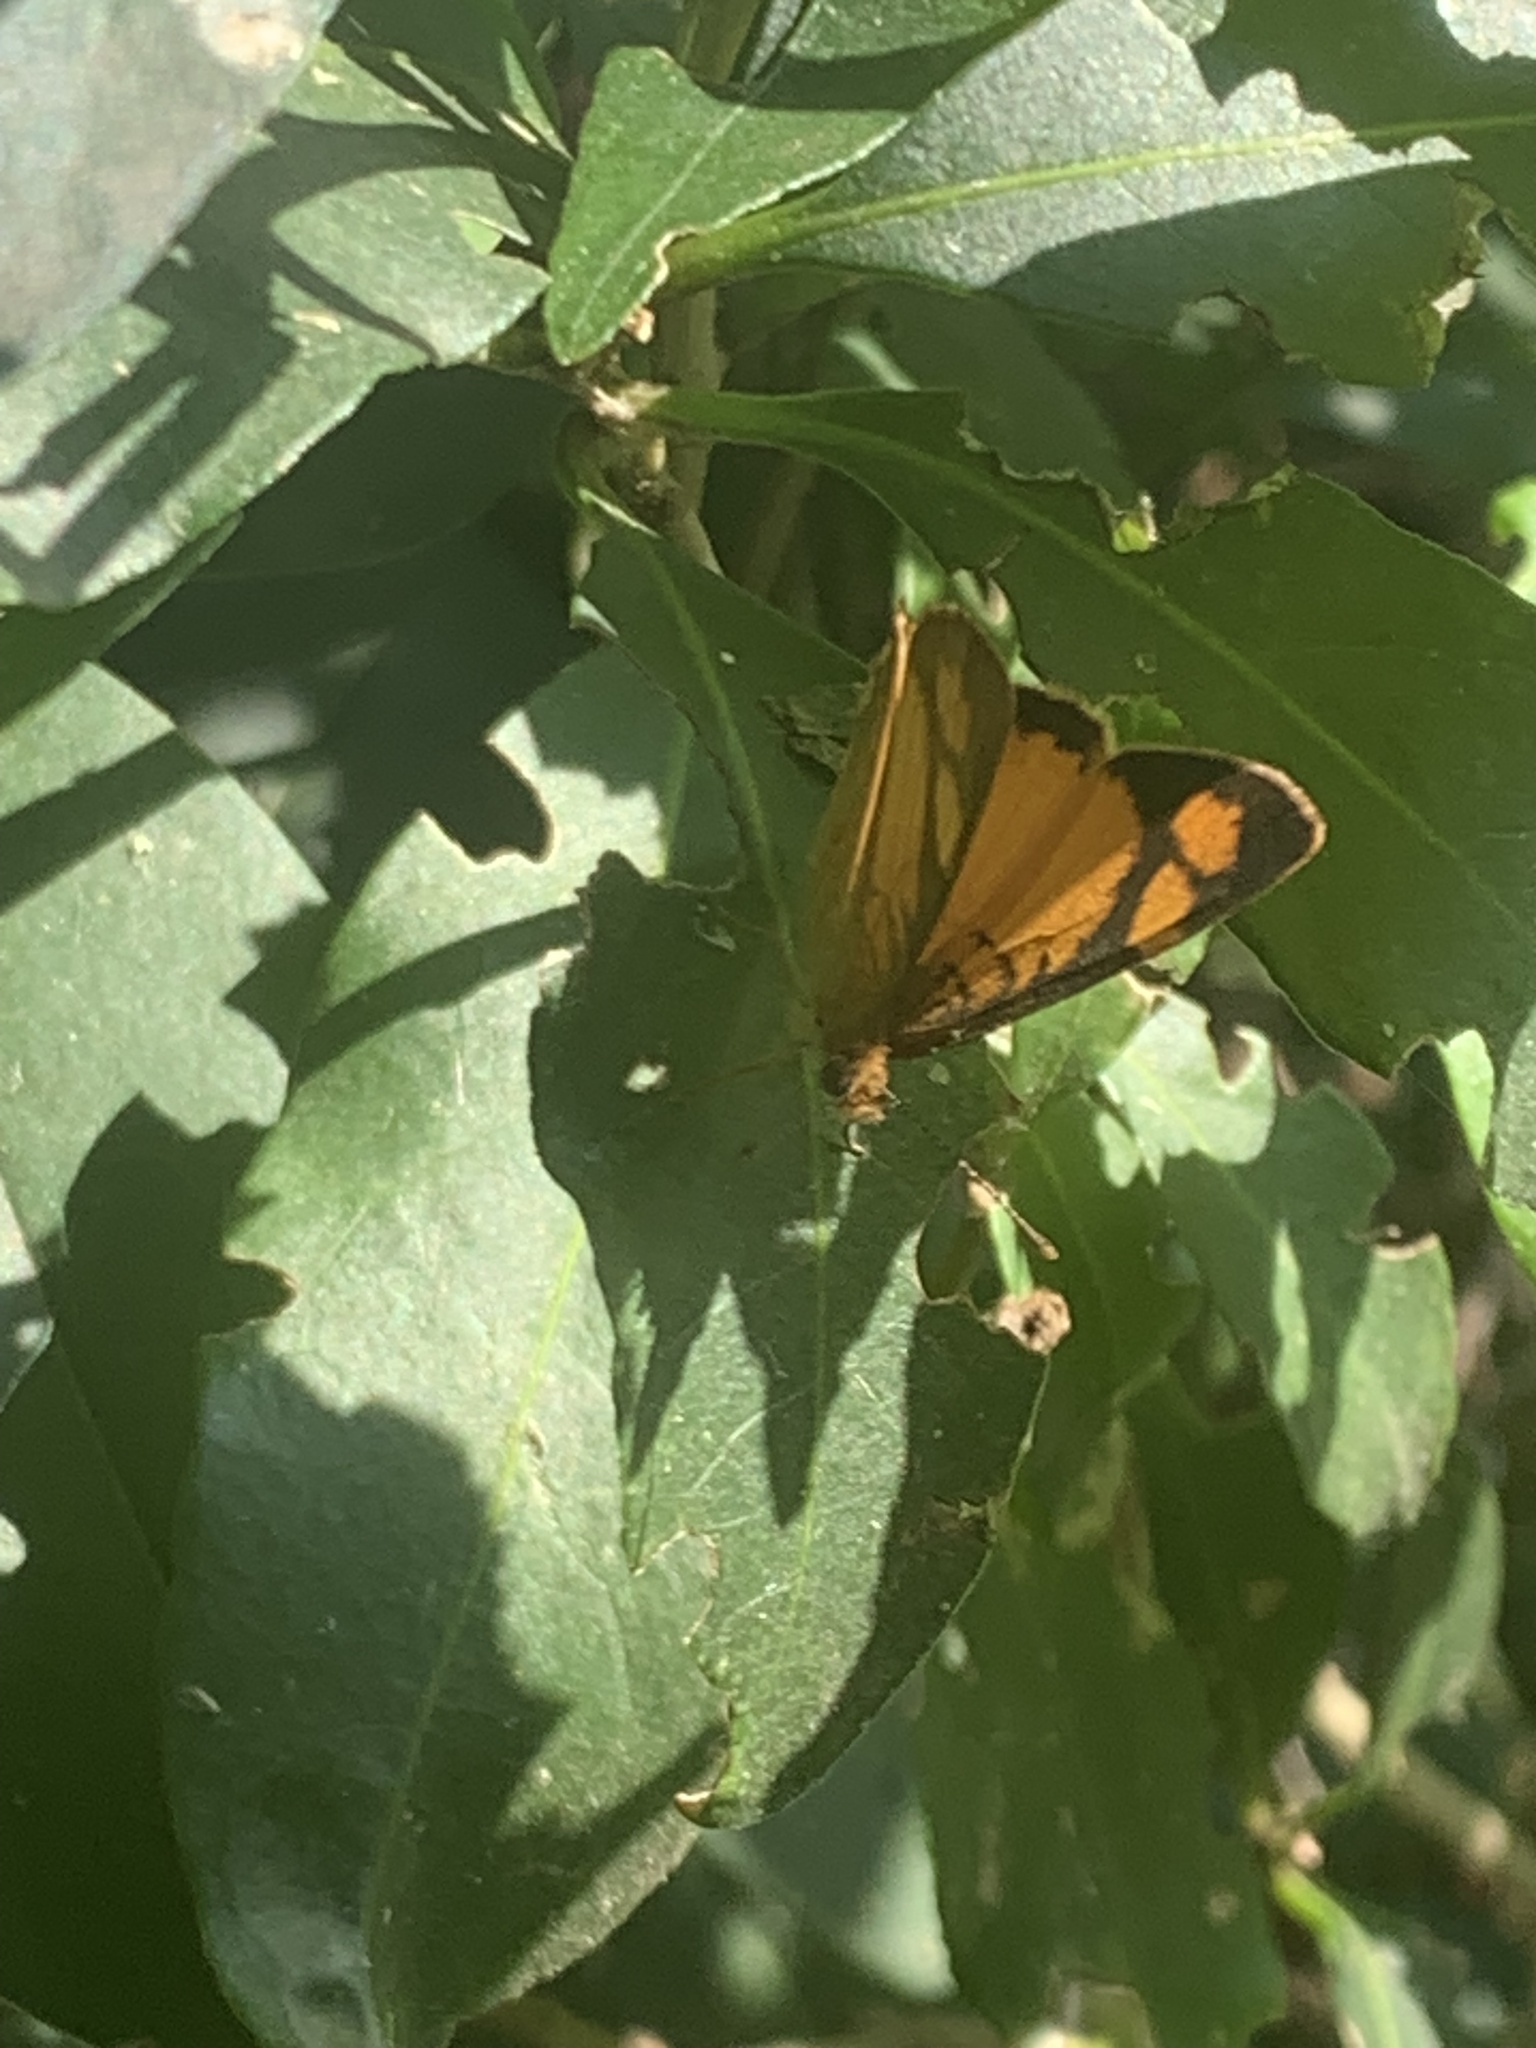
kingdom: Animalia
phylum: Arthropoda
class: Insecta
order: Lepidoptera
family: Nymphalidae
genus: Tegosa
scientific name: Tegosa claudina
